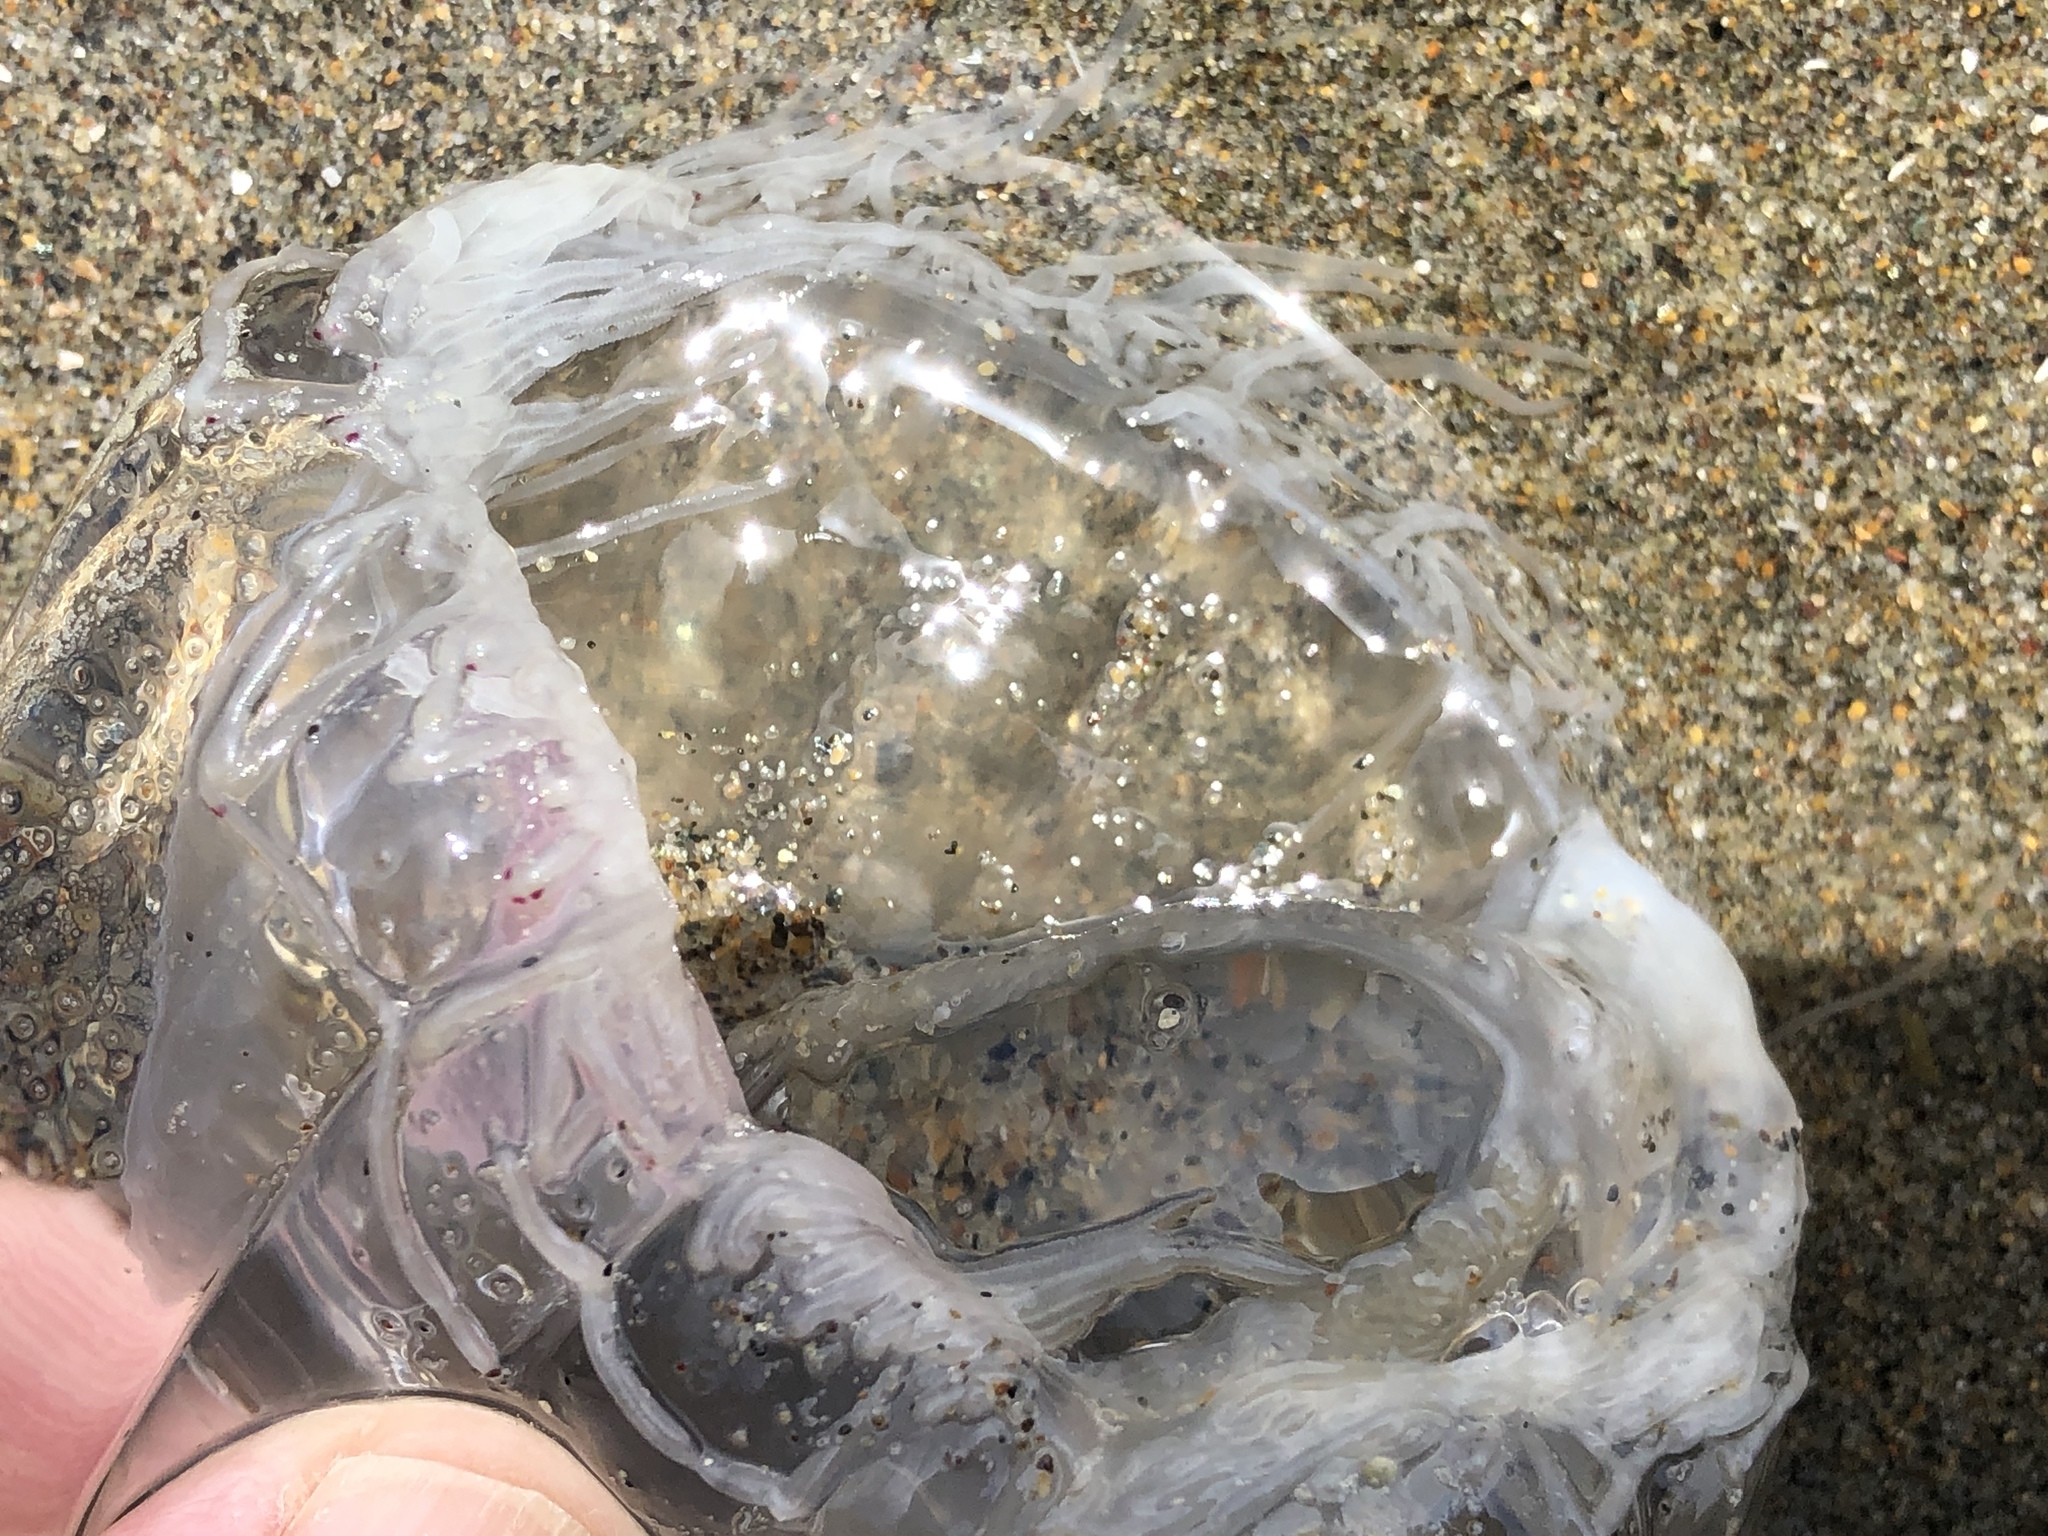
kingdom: Animalia
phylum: Cnidaria
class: Hydrozoa
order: Anthoathecata
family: Corynidae
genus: Scrippsia
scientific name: Scrippsia pacifica
